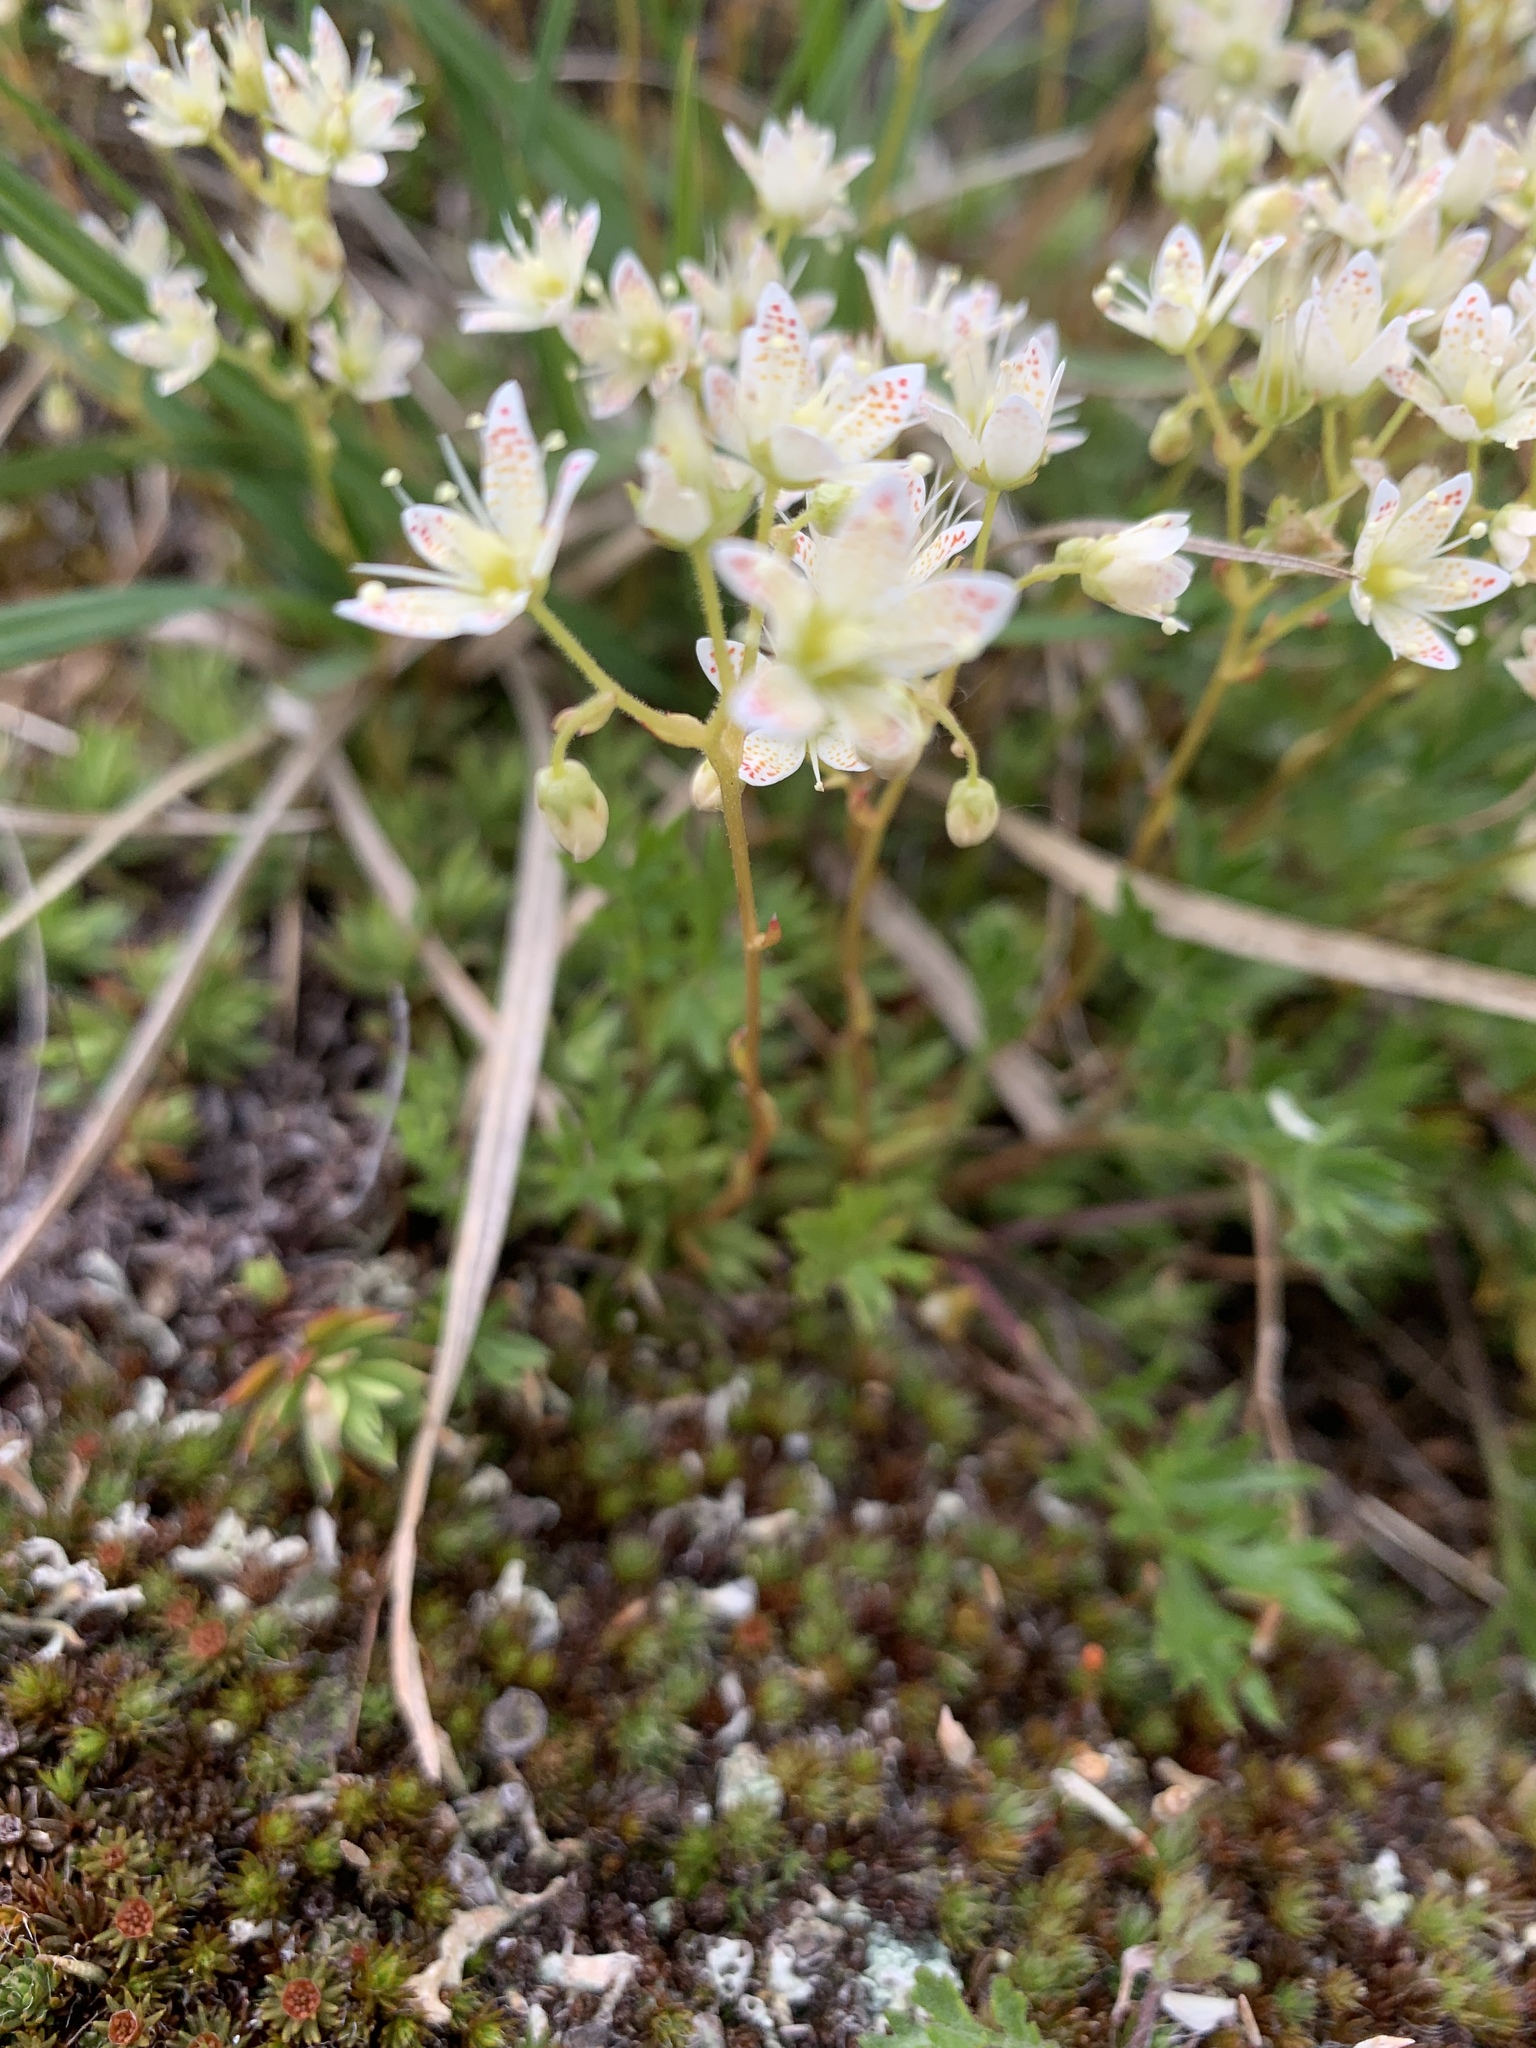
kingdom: Plantae
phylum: Tracheophyta
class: Magnoliopsida
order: Saxifragales
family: Saxifragaceae
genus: Saxifraga
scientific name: Saxifraga tricuspidata
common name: Prickly saxifrage
